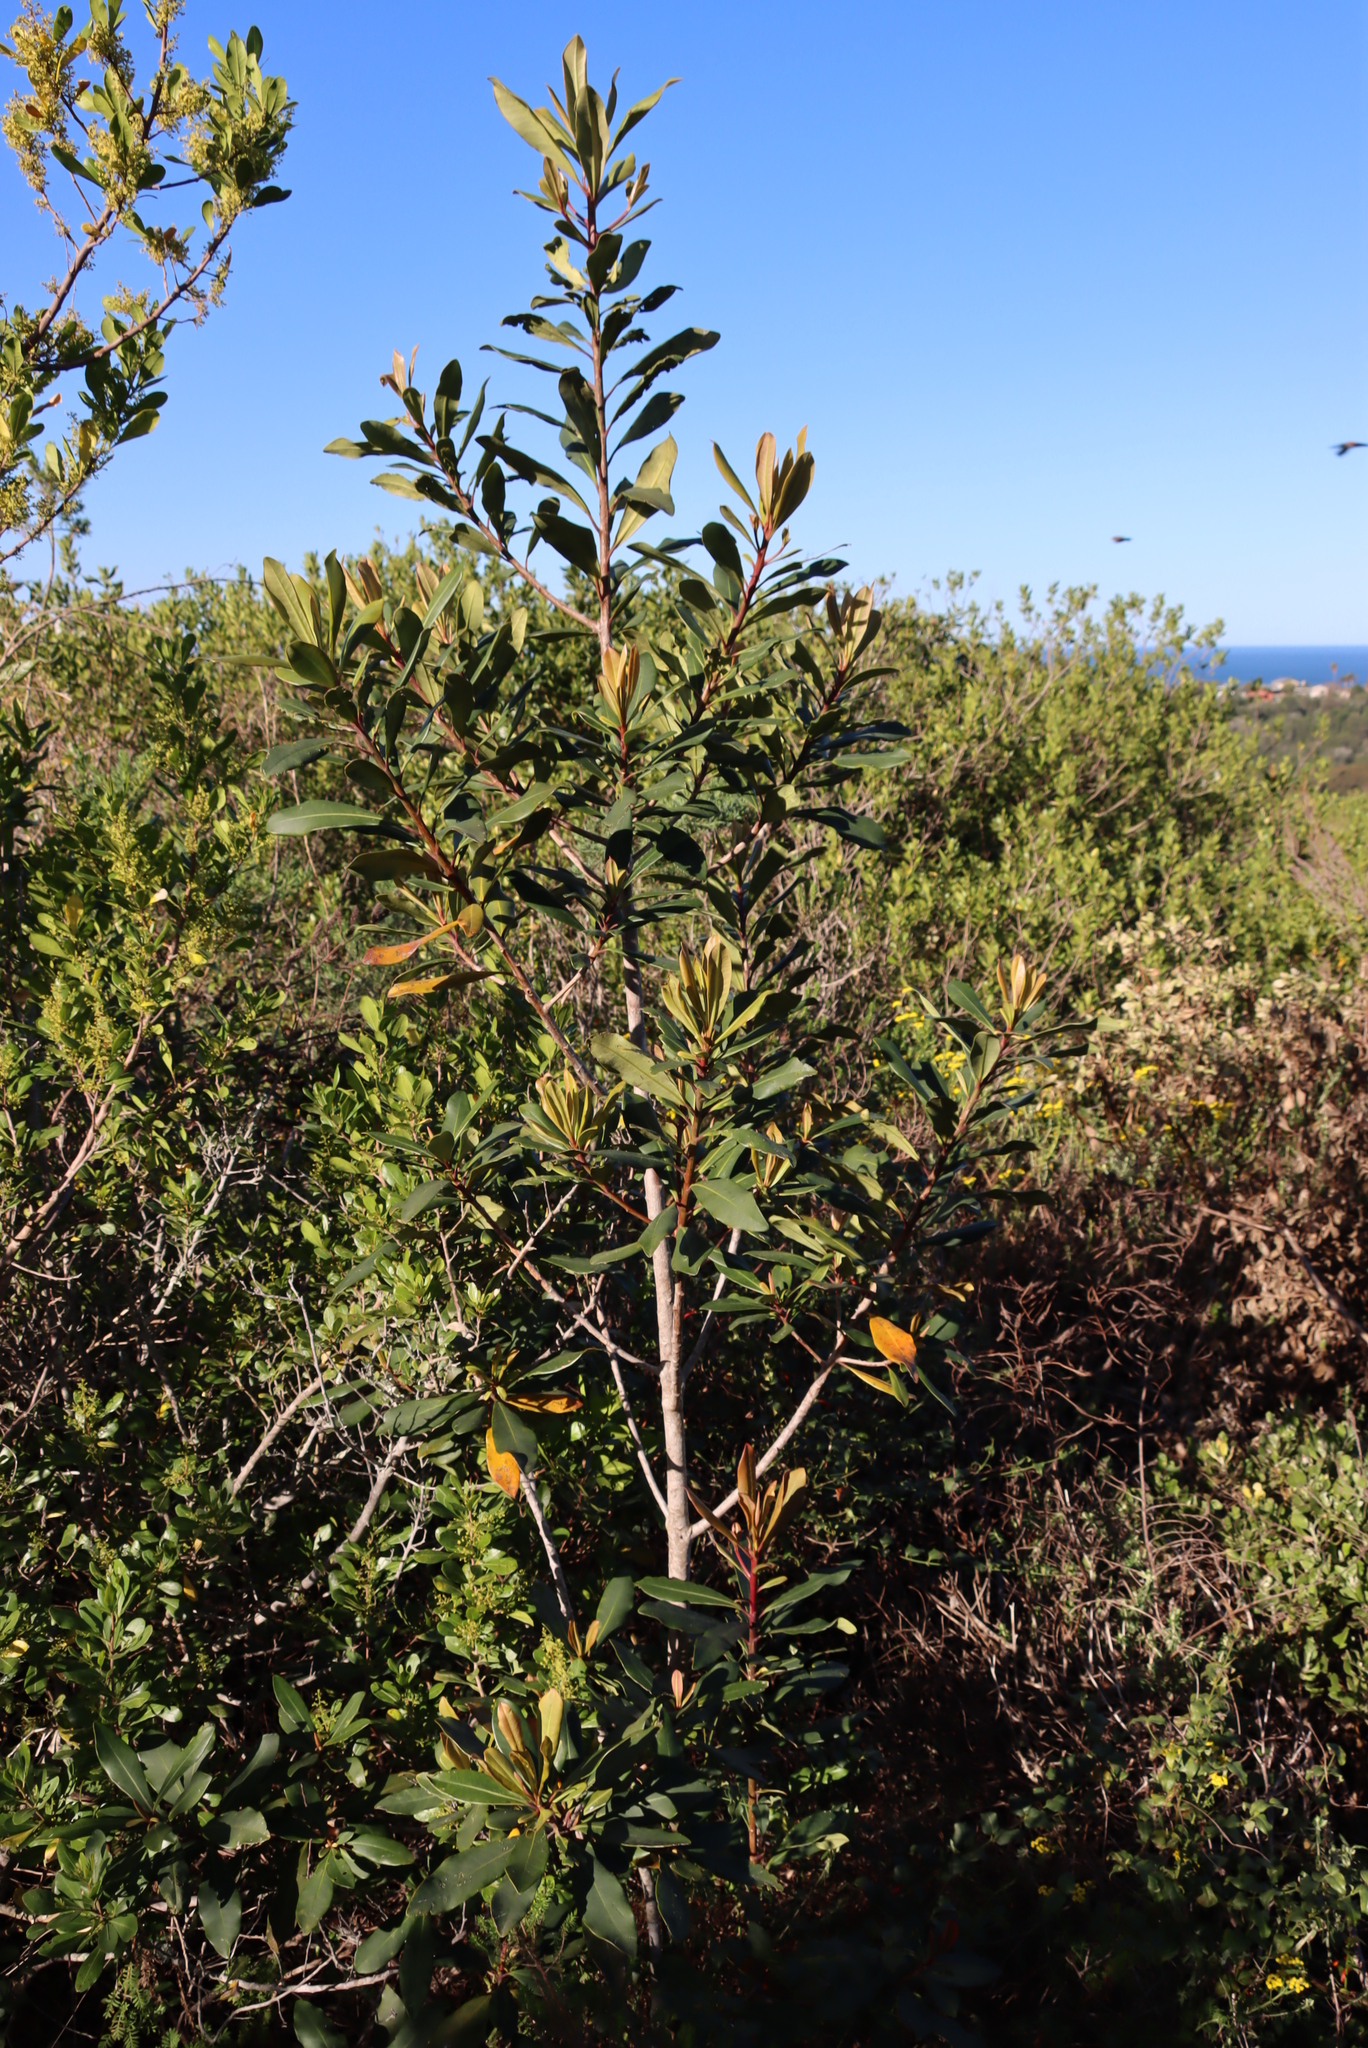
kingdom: Plantae
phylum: Tracheophyta
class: Magnoliopsida
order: Ericales
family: Primulaceae
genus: Myrsine
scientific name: Myrsine melanophloeos
